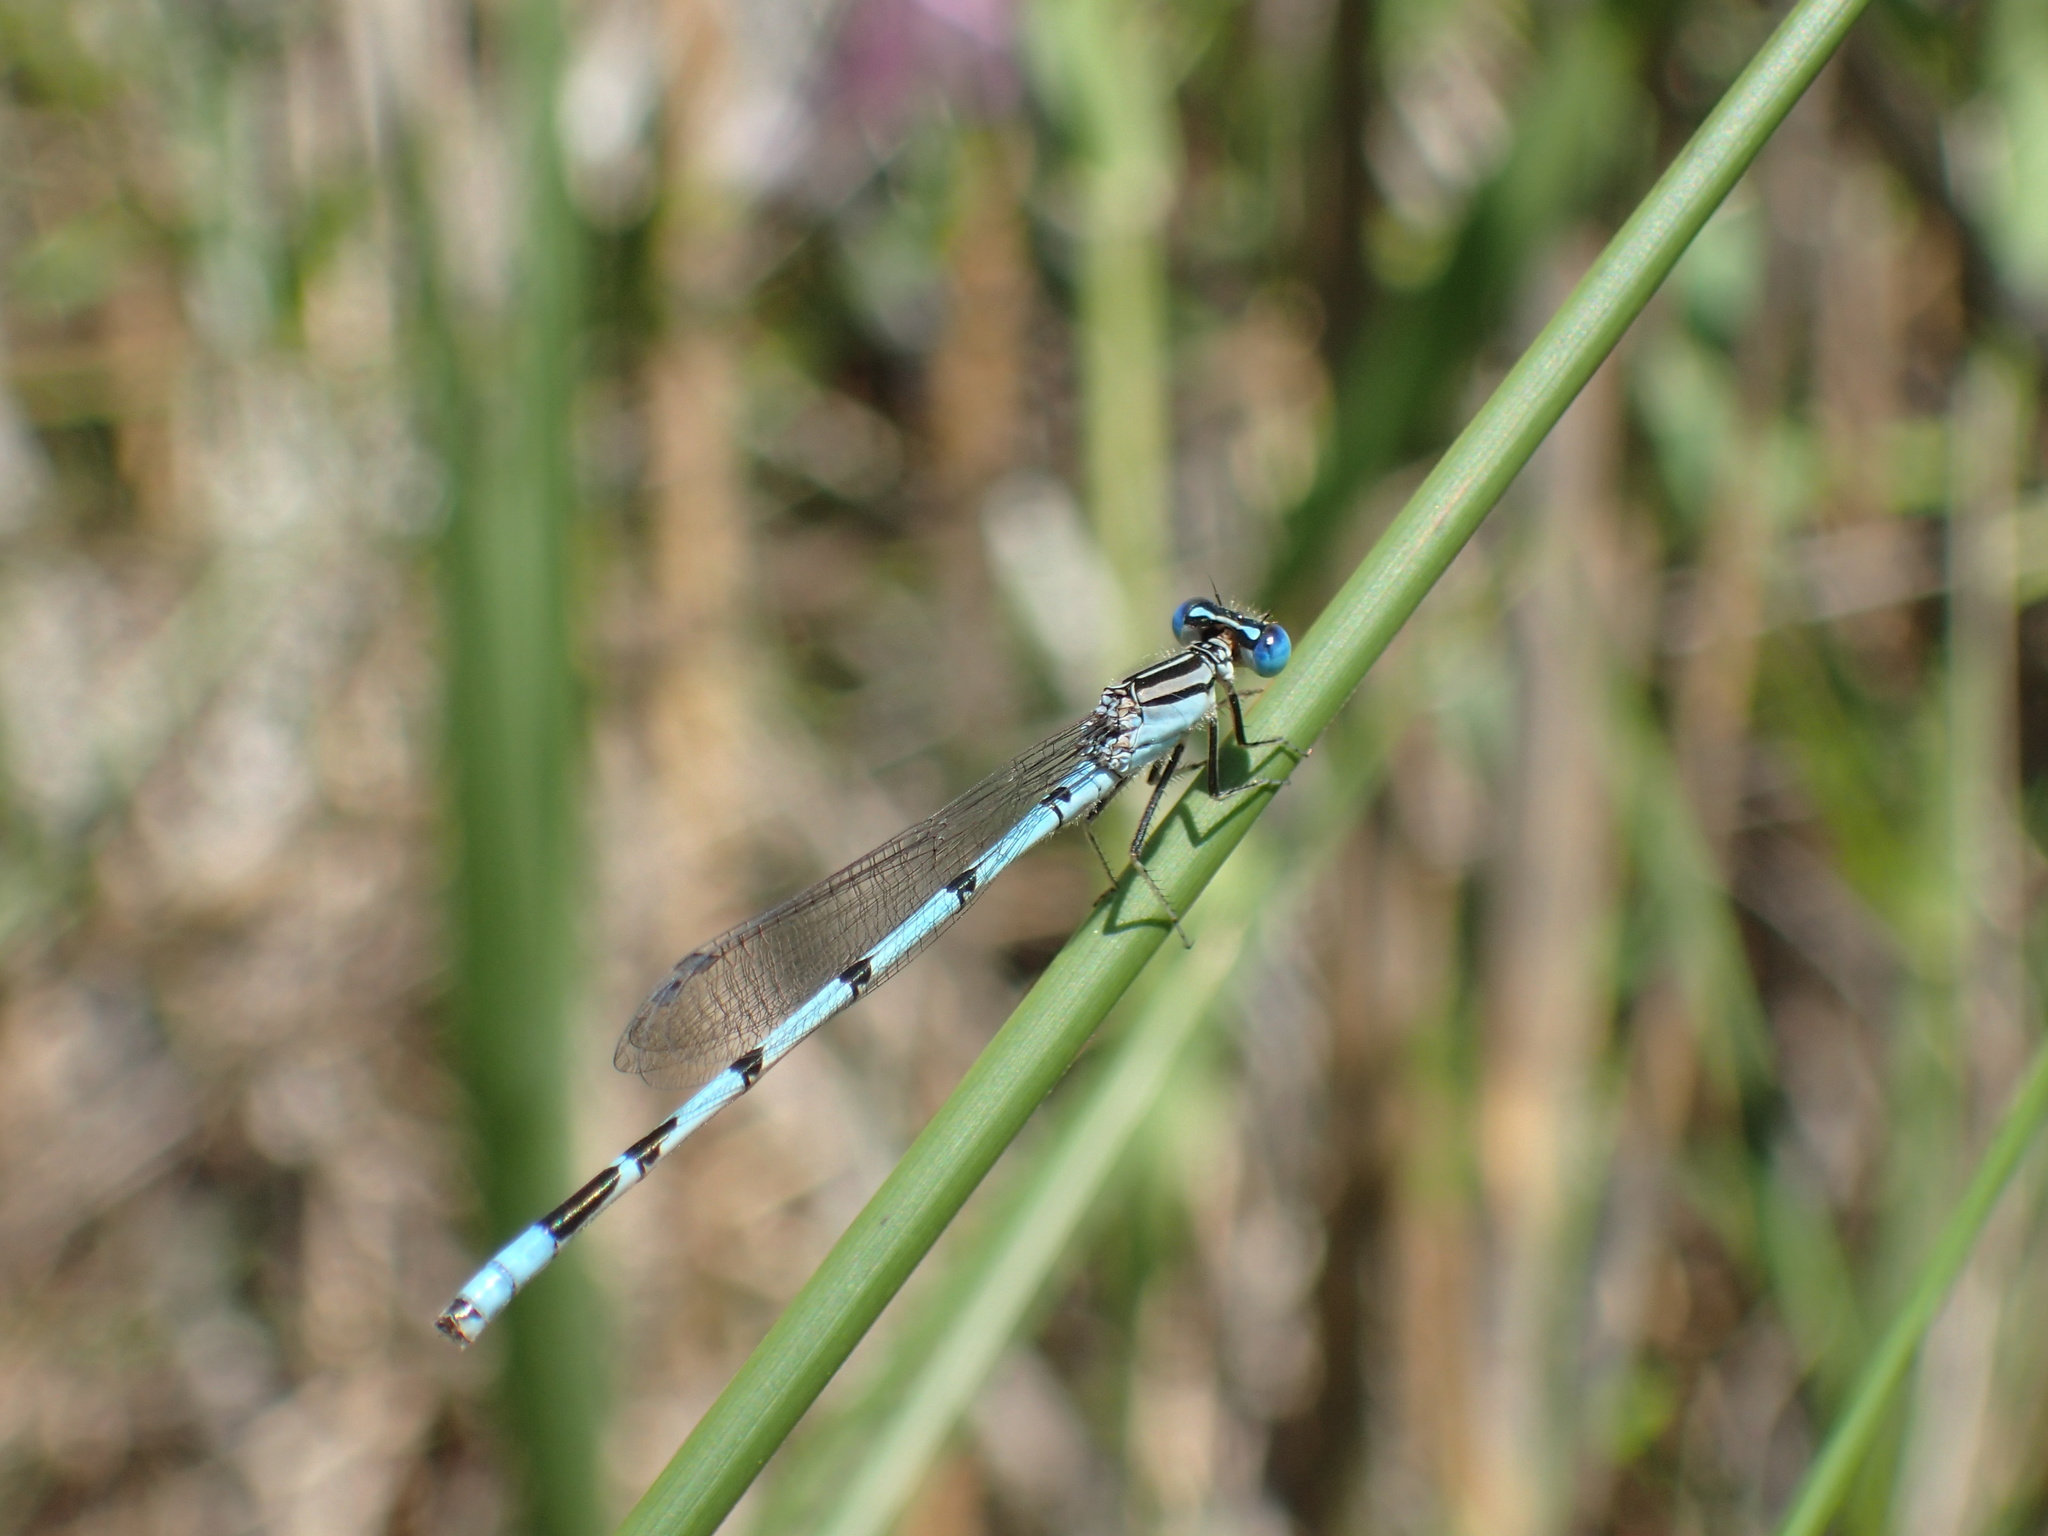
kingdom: Animalia
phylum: Arthropoda
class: Insecta
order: Odonata
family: Coenagrionidae
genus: Enallagma
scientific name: Enallagma durum
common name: Big bluet
